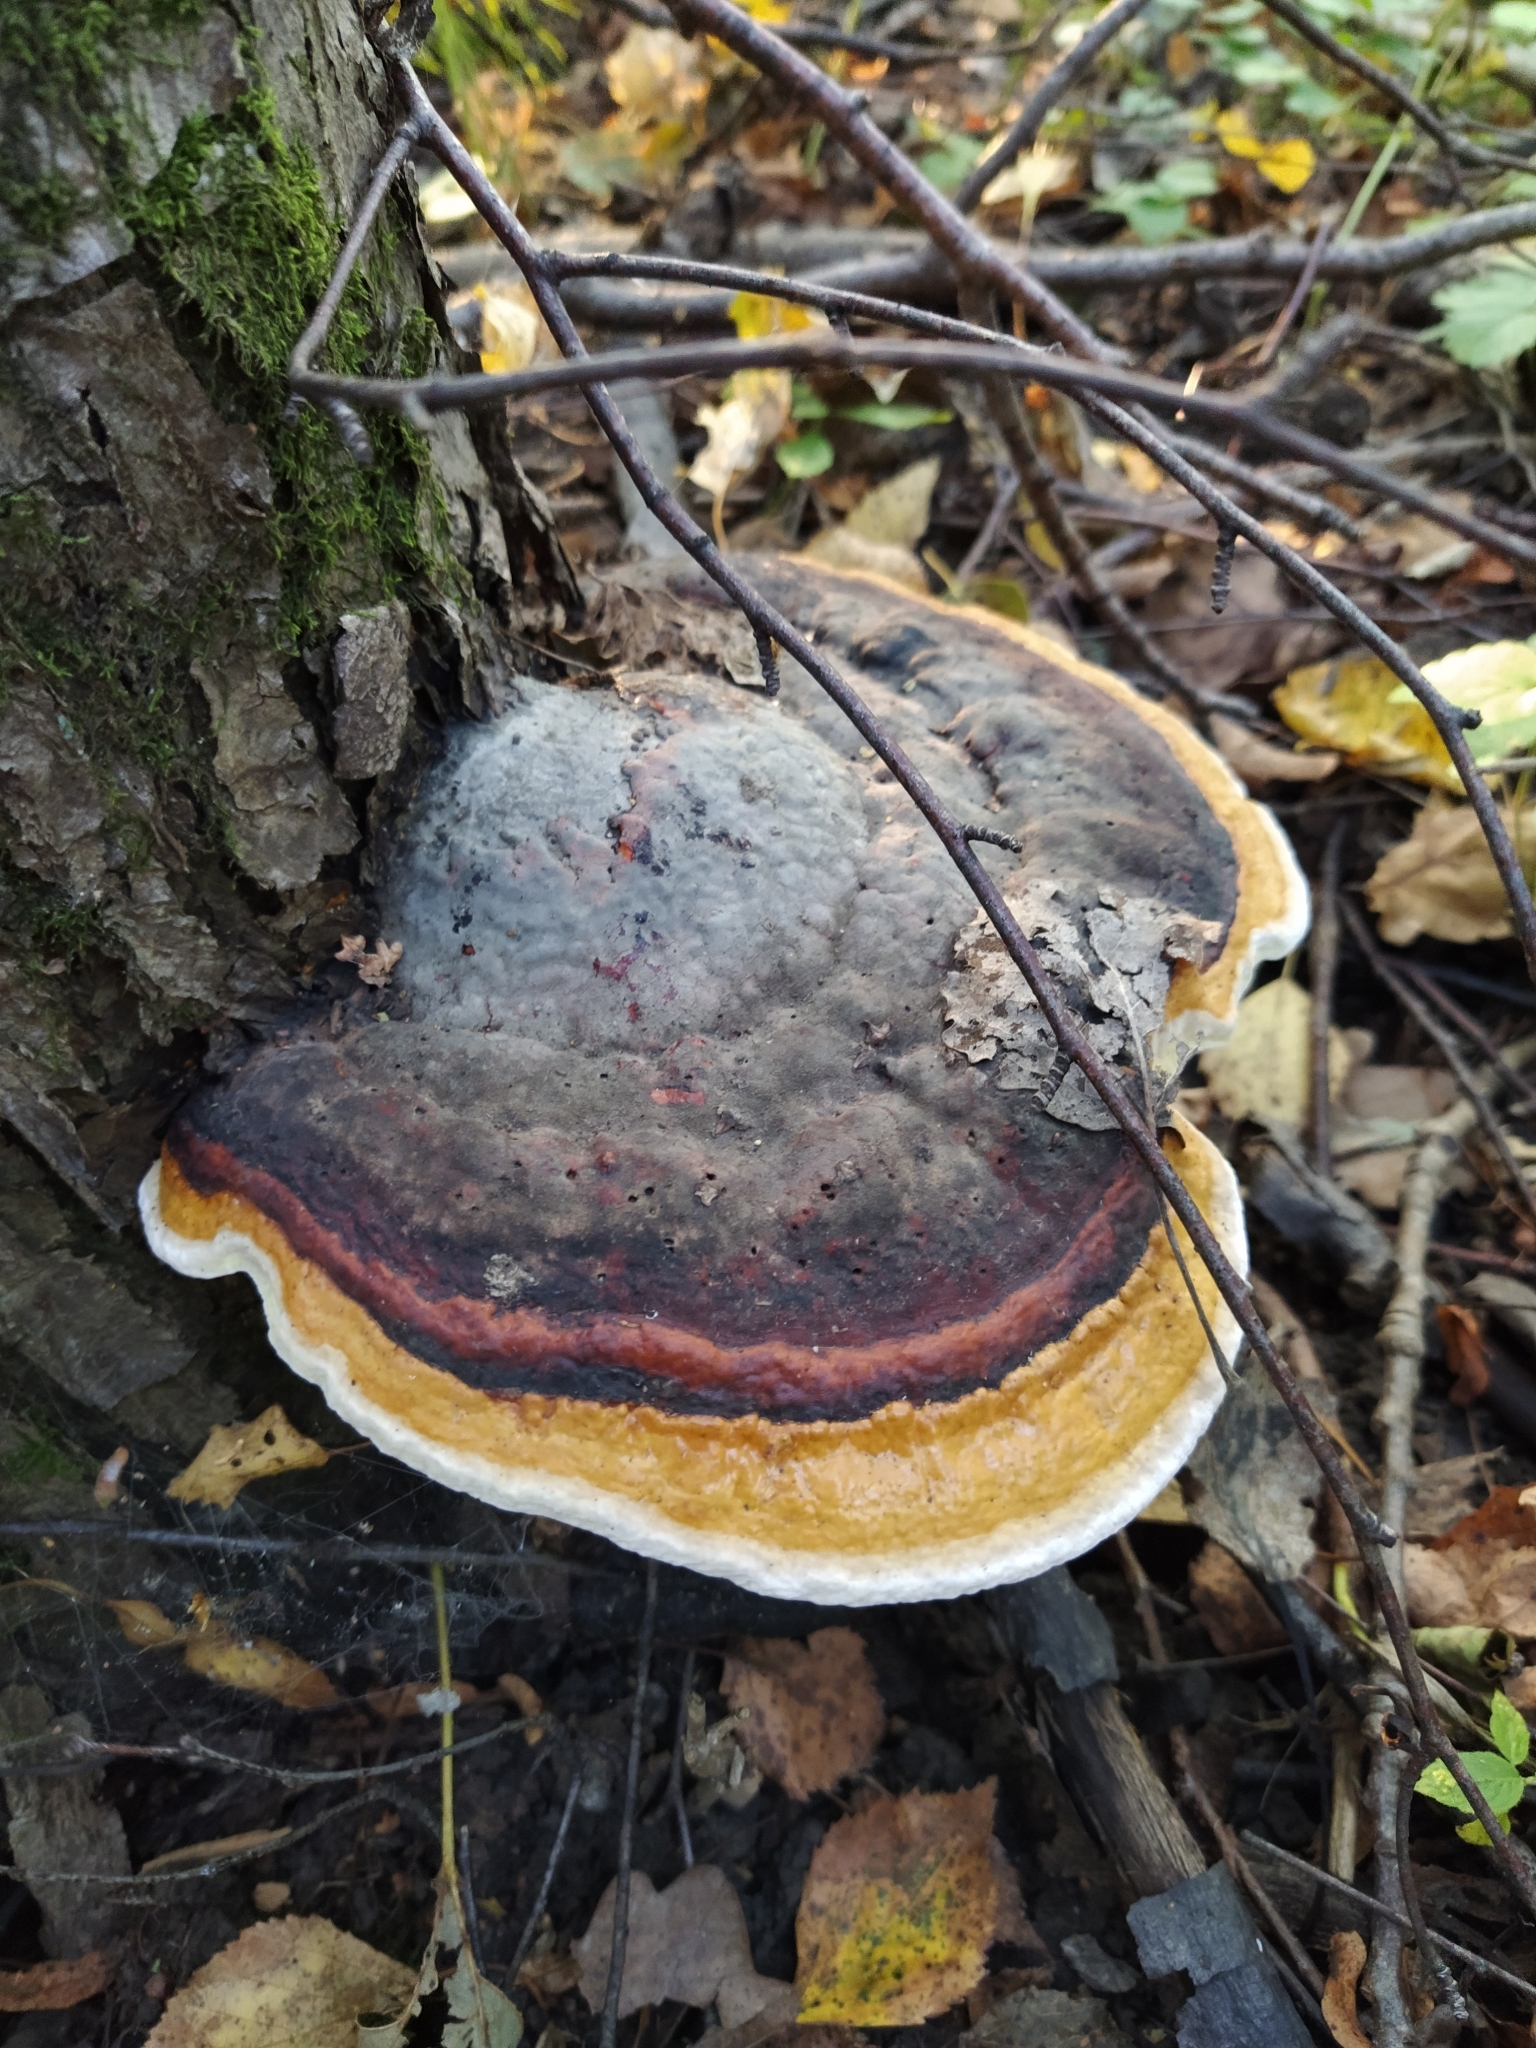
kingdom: Fungi
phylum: Basidiomycota
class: Agaricomycetes
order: Polyporales
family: Fomitopsidaceae
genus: Fomitopsis
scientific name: Fomitopsis pinicola
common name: Red-belted bracket
